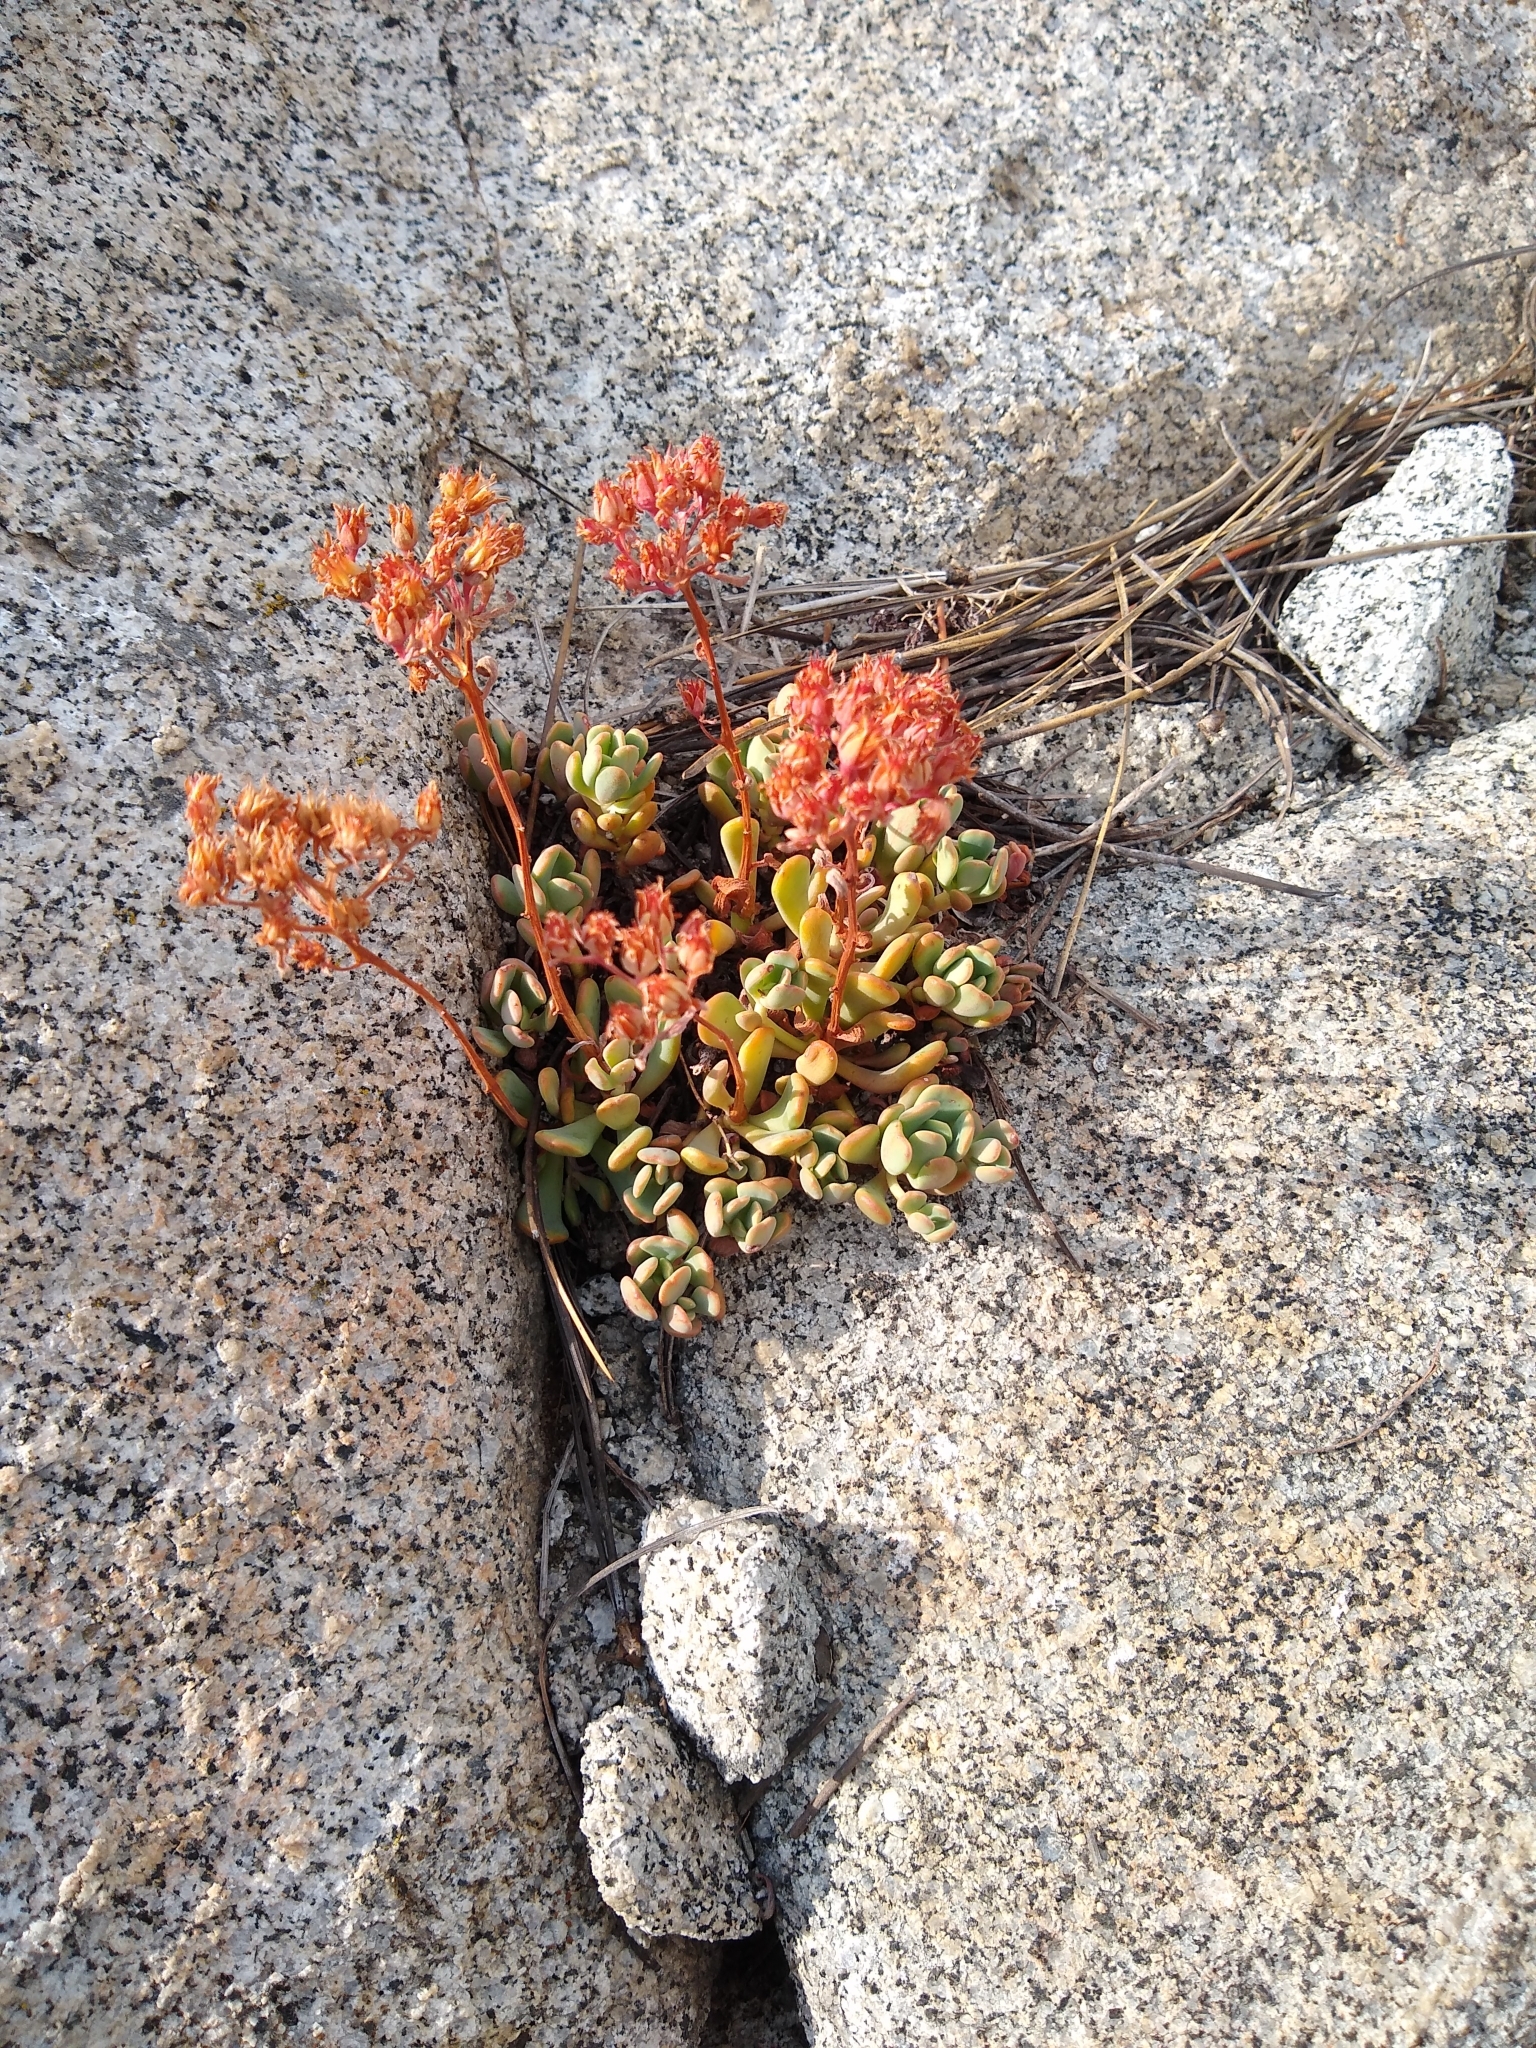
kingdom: Plantae
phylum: Tracheophyta
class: Magnoliopsida
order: Saxifragales
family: Crassulaceae
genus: Sedum
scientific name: Sedum obtusatum
